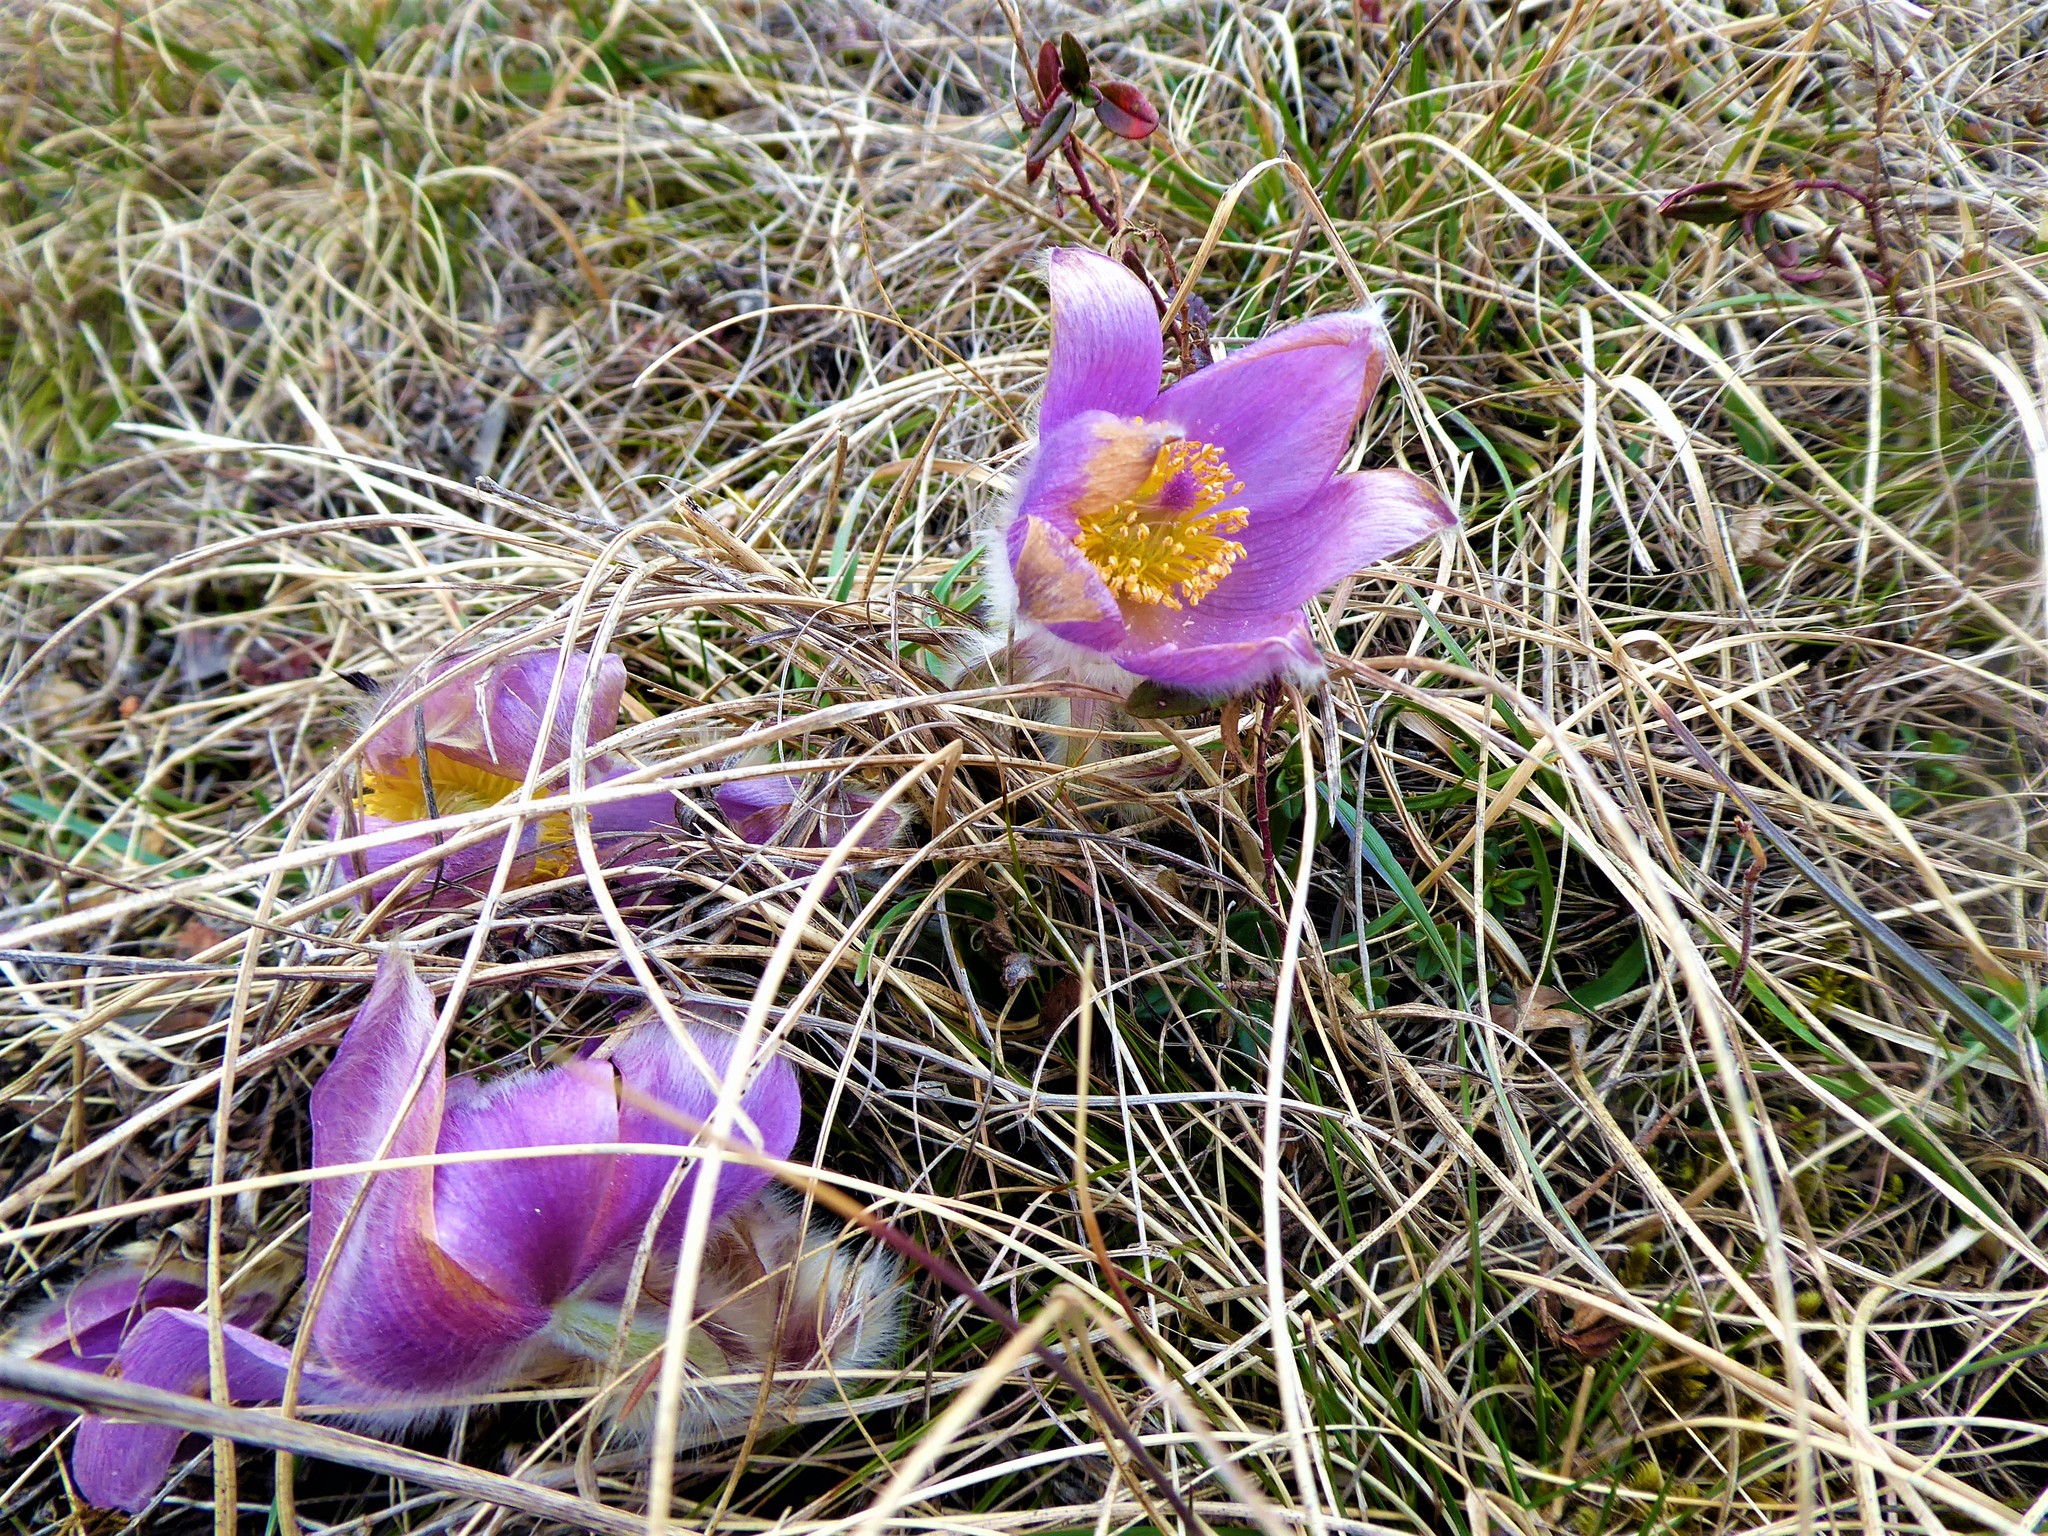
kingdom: Plantae
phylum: Tracheophyta
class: Magnoliopsida
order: Ranunculales
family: Ranunculaceae
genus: Pulsatilla
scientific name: Pulsatilla grandis
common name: Greater pasque flower
